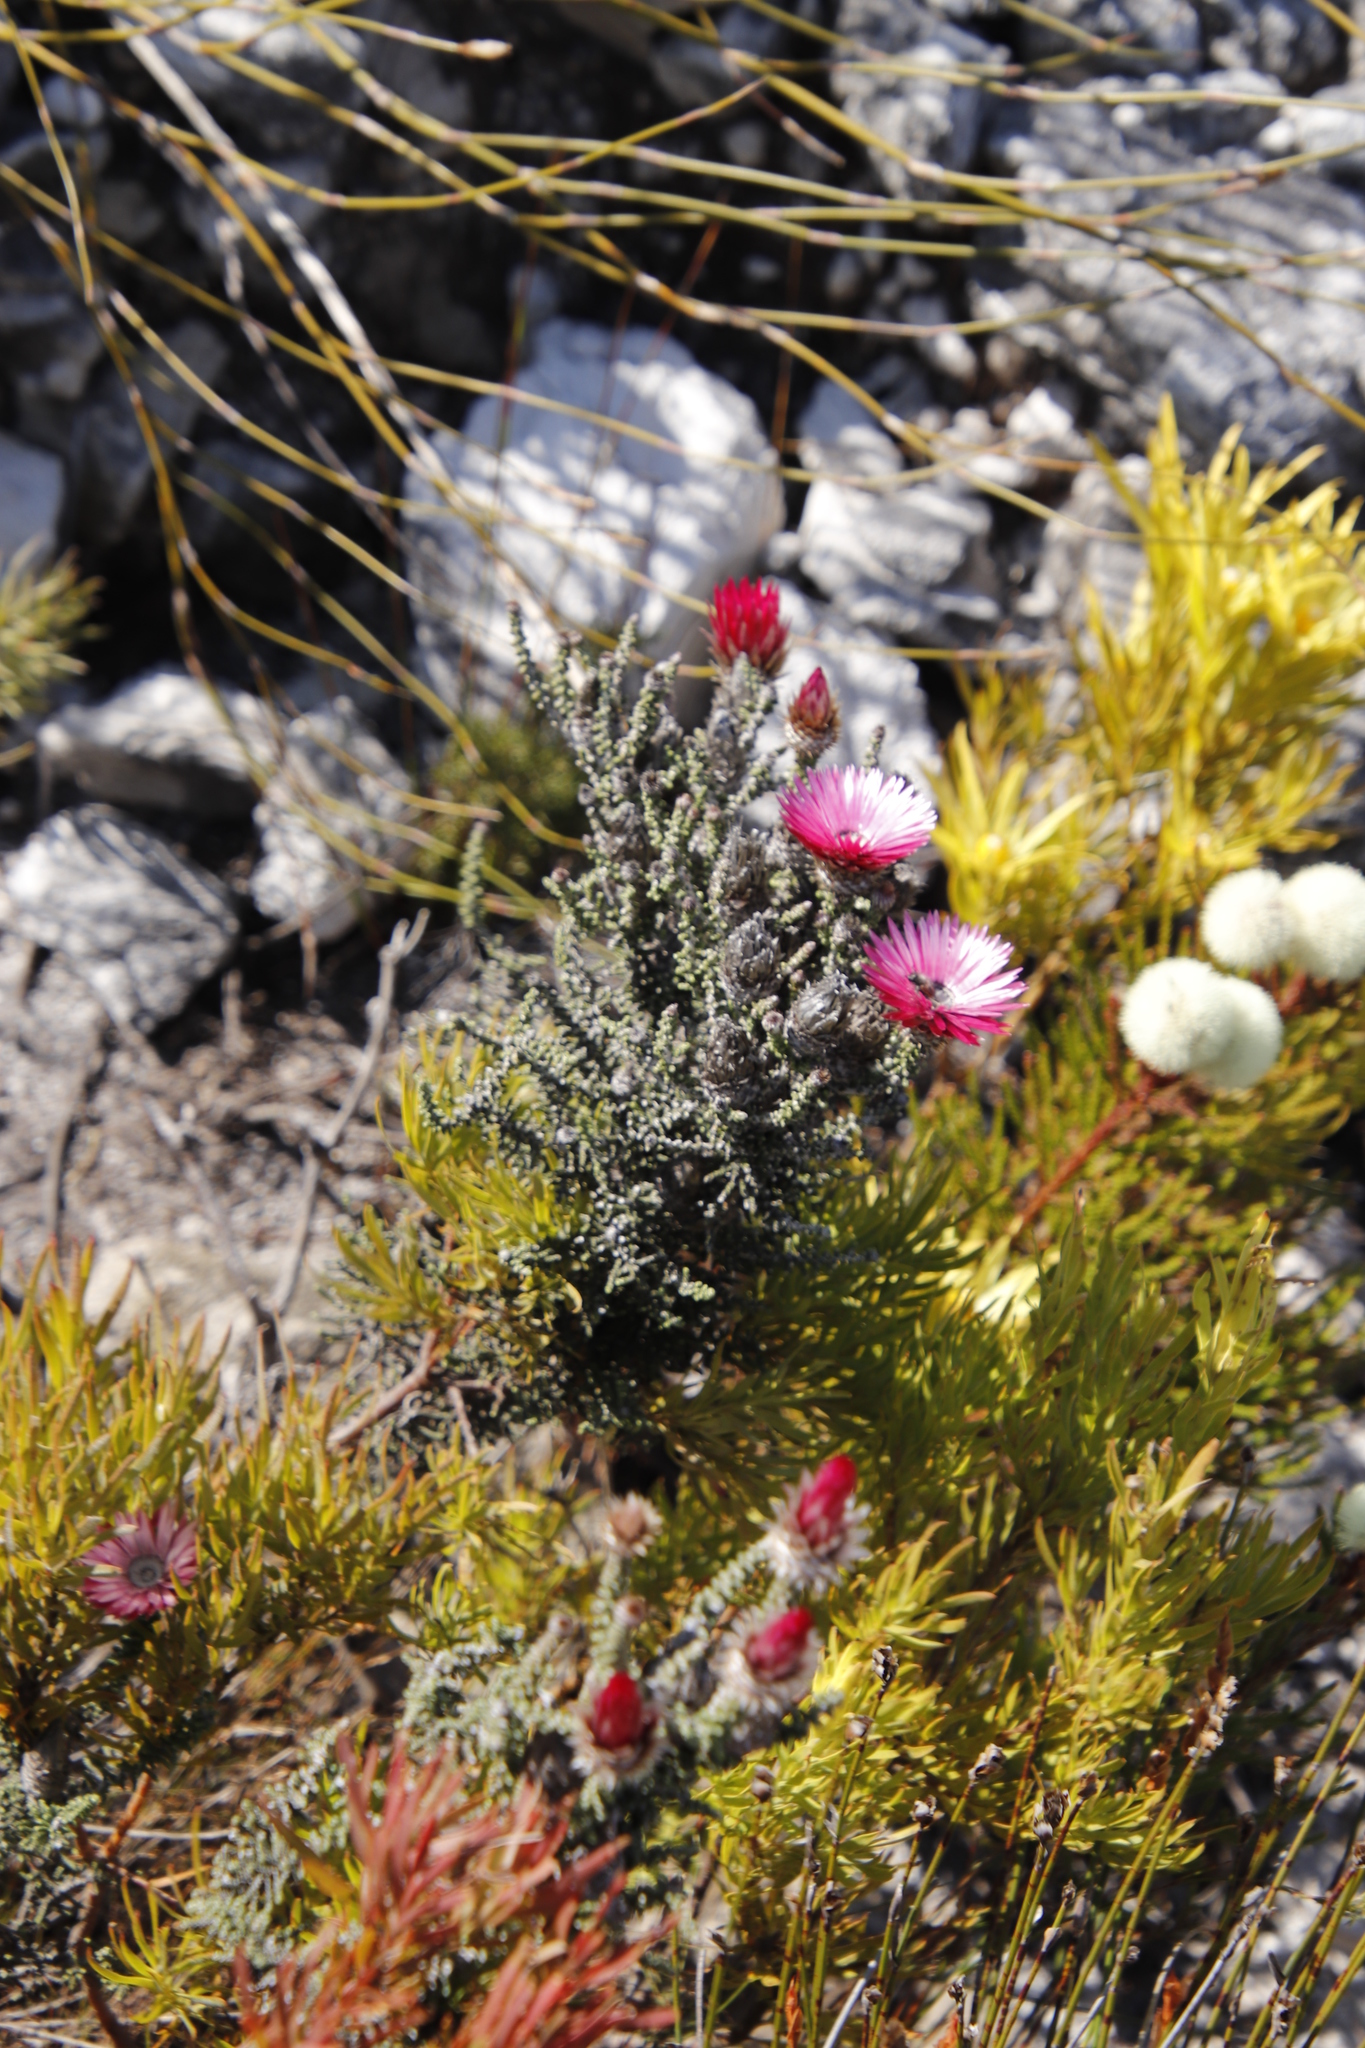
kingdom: Plantae
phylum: Tracheophyta
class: Magnoliopsida
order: Asterales
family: Asteraceae
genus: Phaenocoma
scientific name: Phaenocoma prolifera
